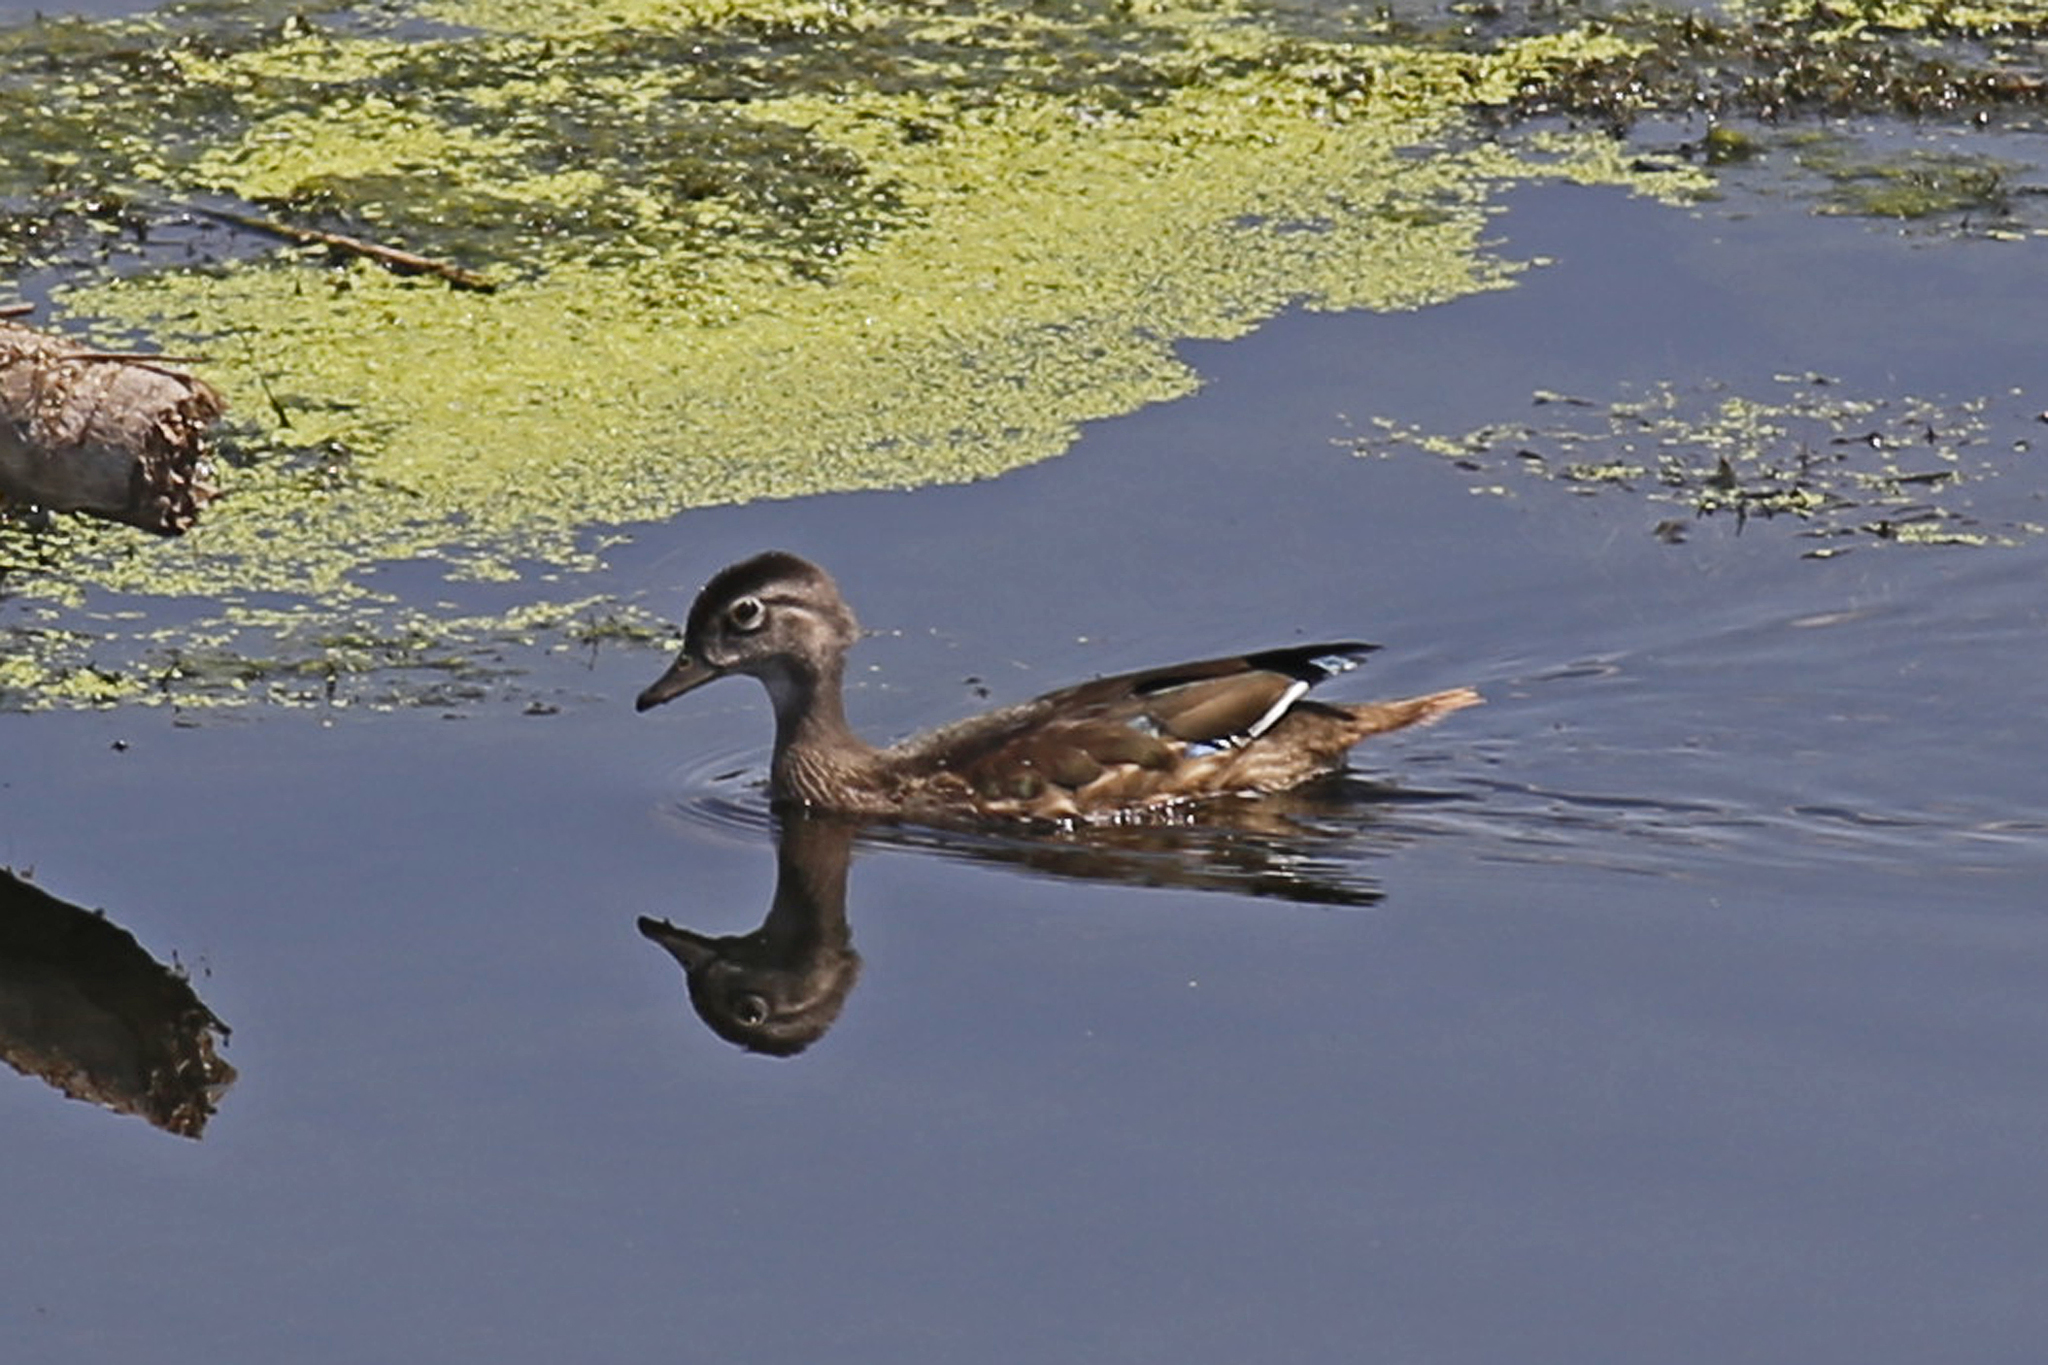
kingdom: Animalia
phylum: Chordata
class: Aves
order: Anseriformes
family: Anatidae
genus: Aix
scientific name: Aix sponsa
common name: Wood duck
